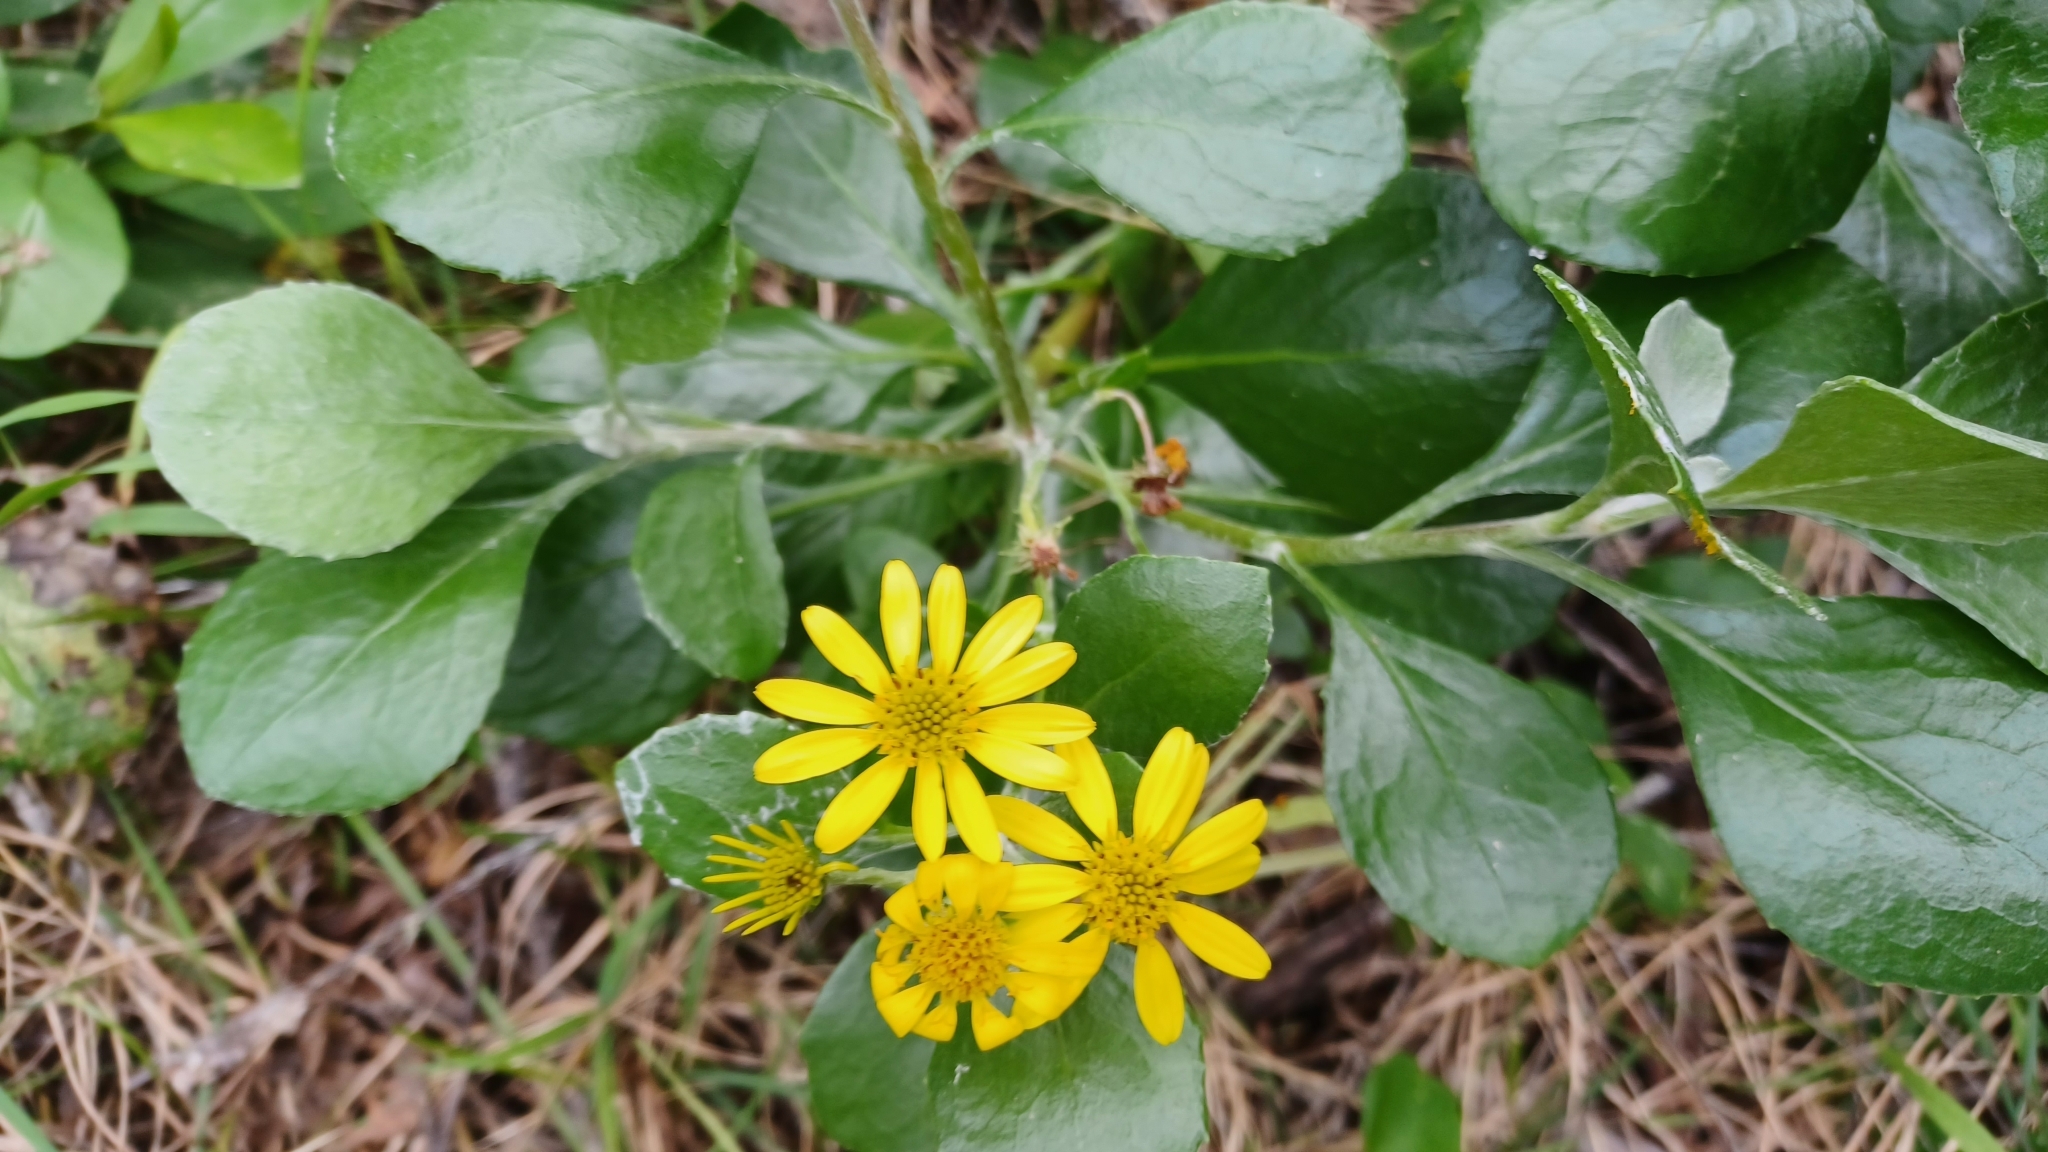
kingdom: Plantae
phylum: Tracheophyta
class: Magnoliopsida
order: Asterales
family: Asteraceae
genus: Osteospermum
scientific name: Osteospermum moniliferum
